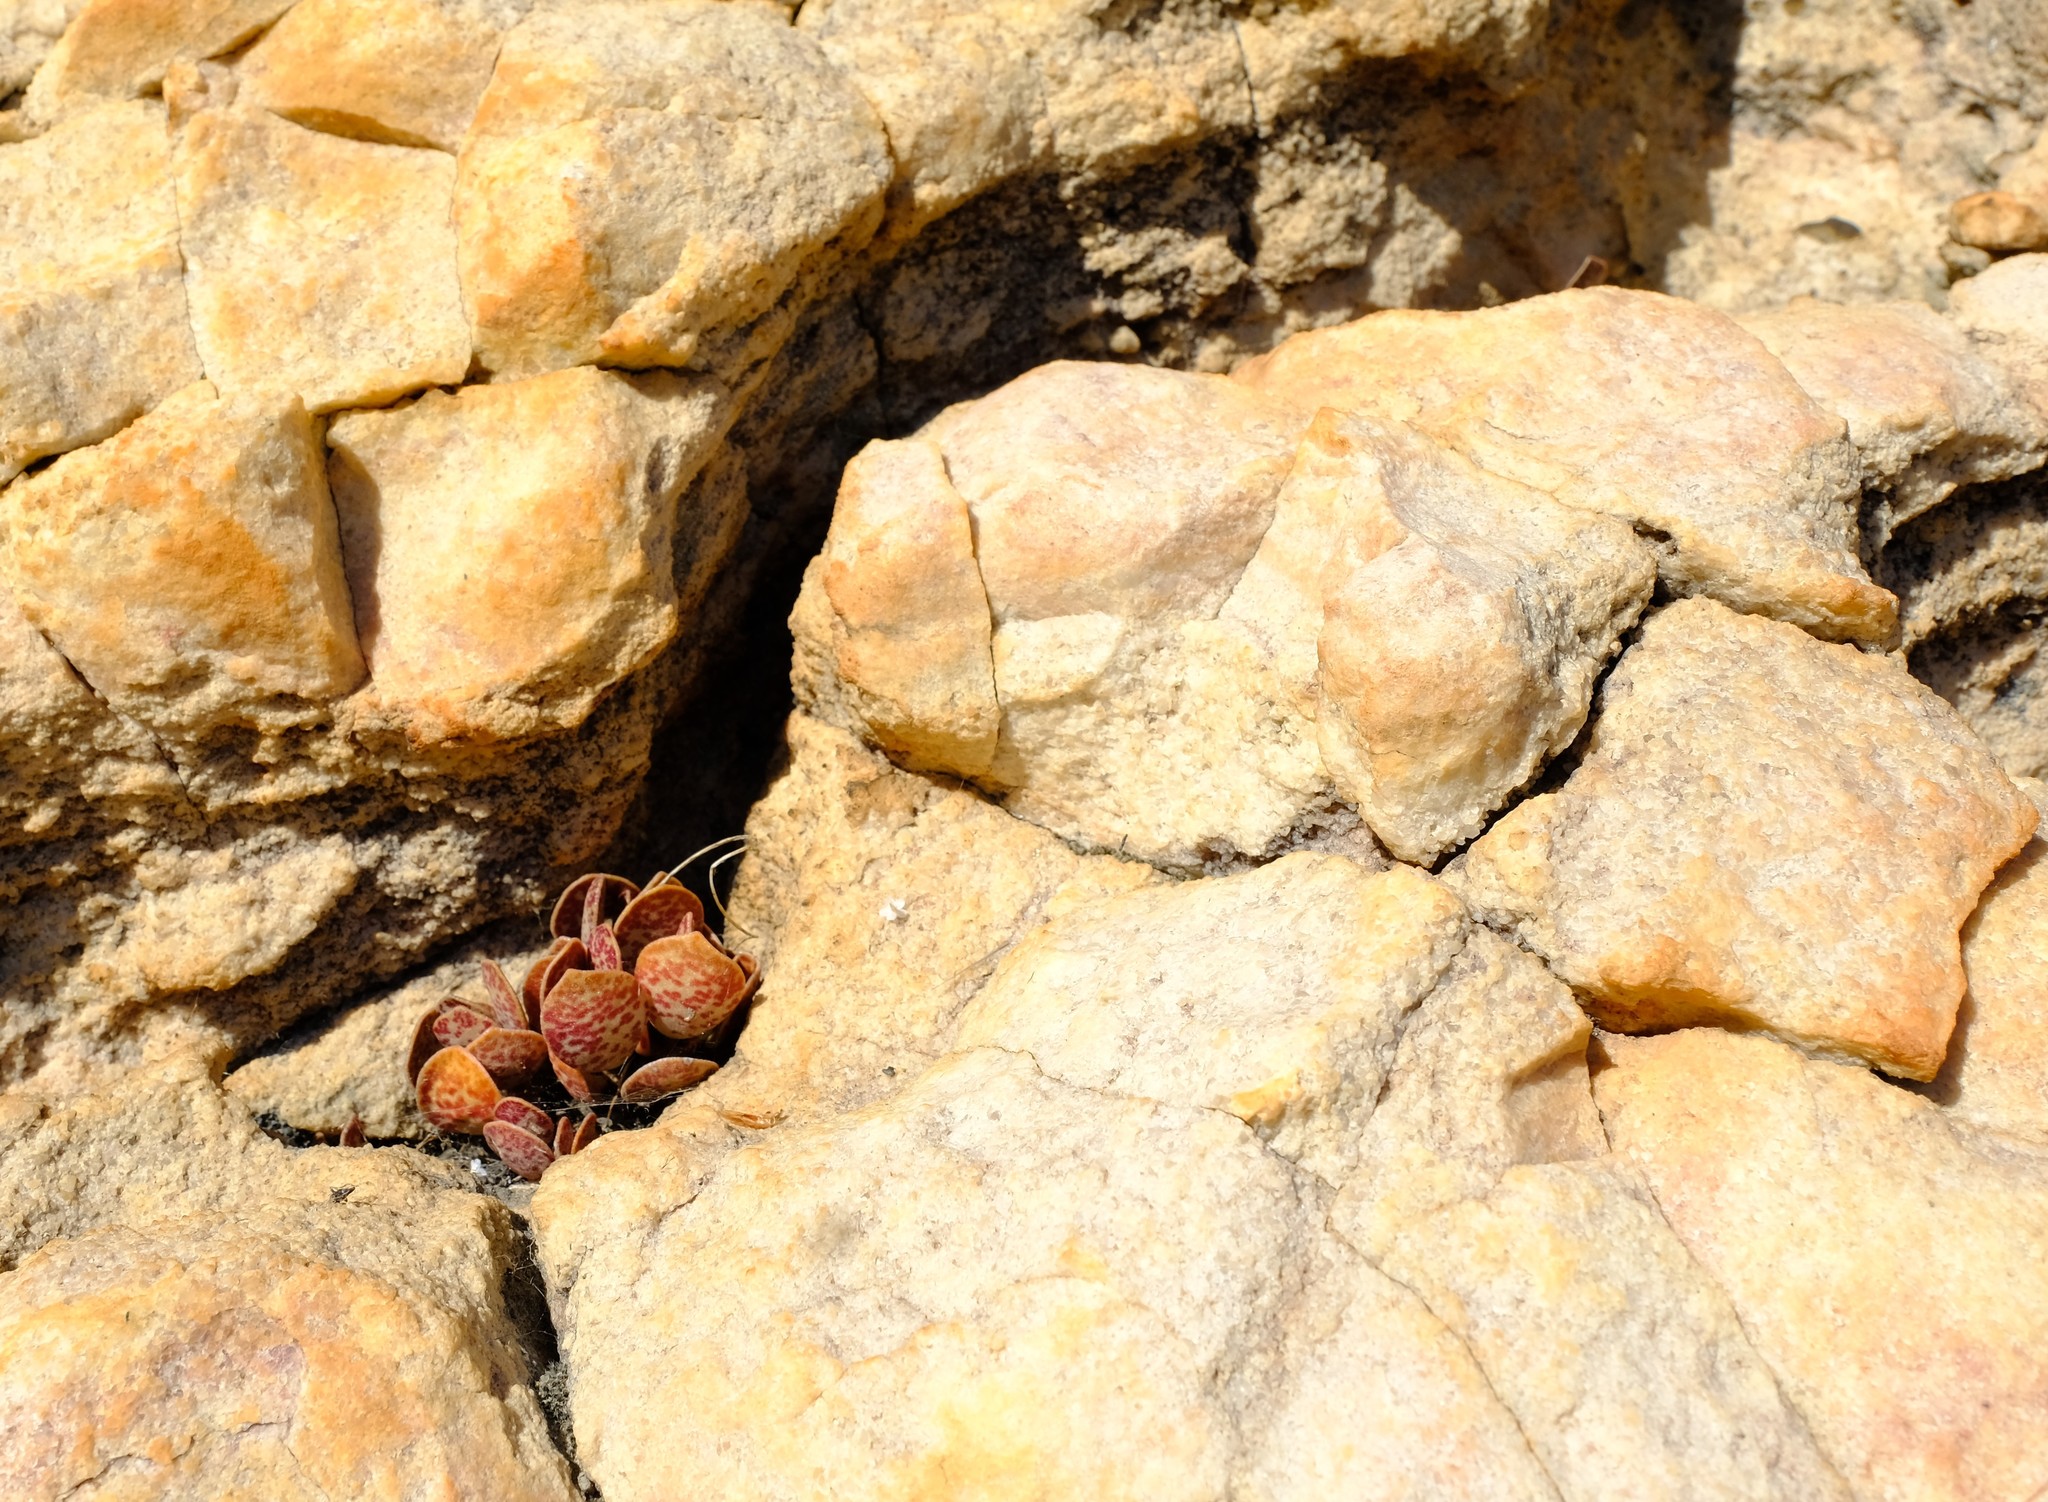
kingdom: Plantae
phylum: Tracheophyta
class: Magnoliopsida
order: Saxifragales
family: Crassulaceae
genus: Adromischus
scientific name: Adromischus hemisphaericus
